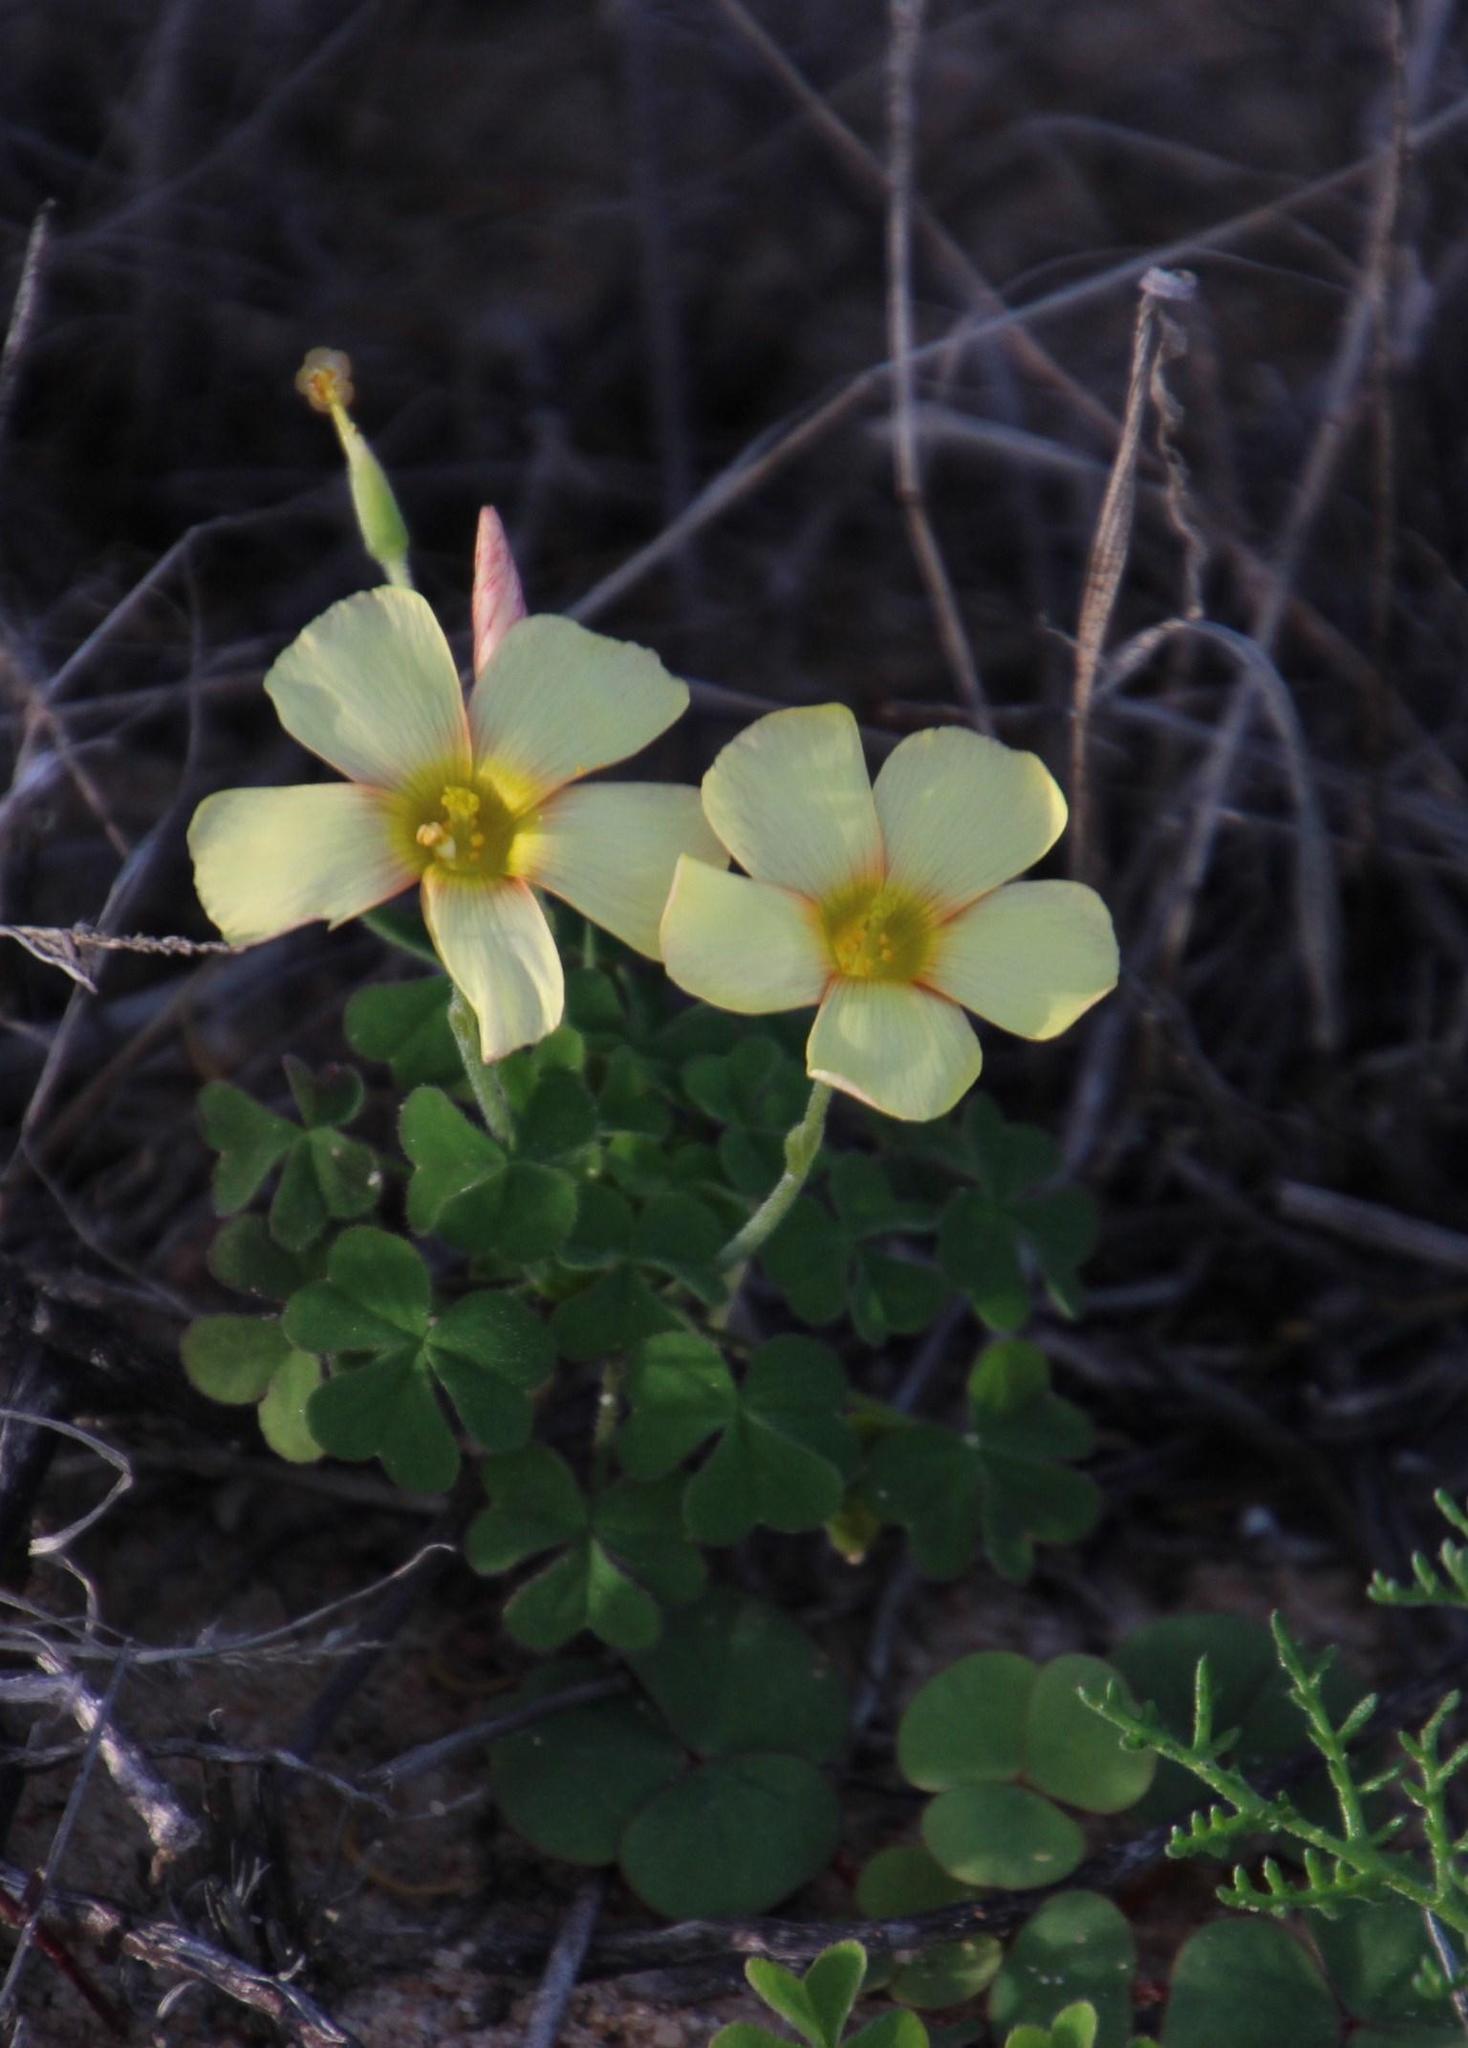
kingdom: Plantae
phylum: Tracheophyta
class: Magnoliopsida
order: Oxalidales
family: Oxalidaceae
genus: Oxalis
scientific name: Oxalis obtusa
